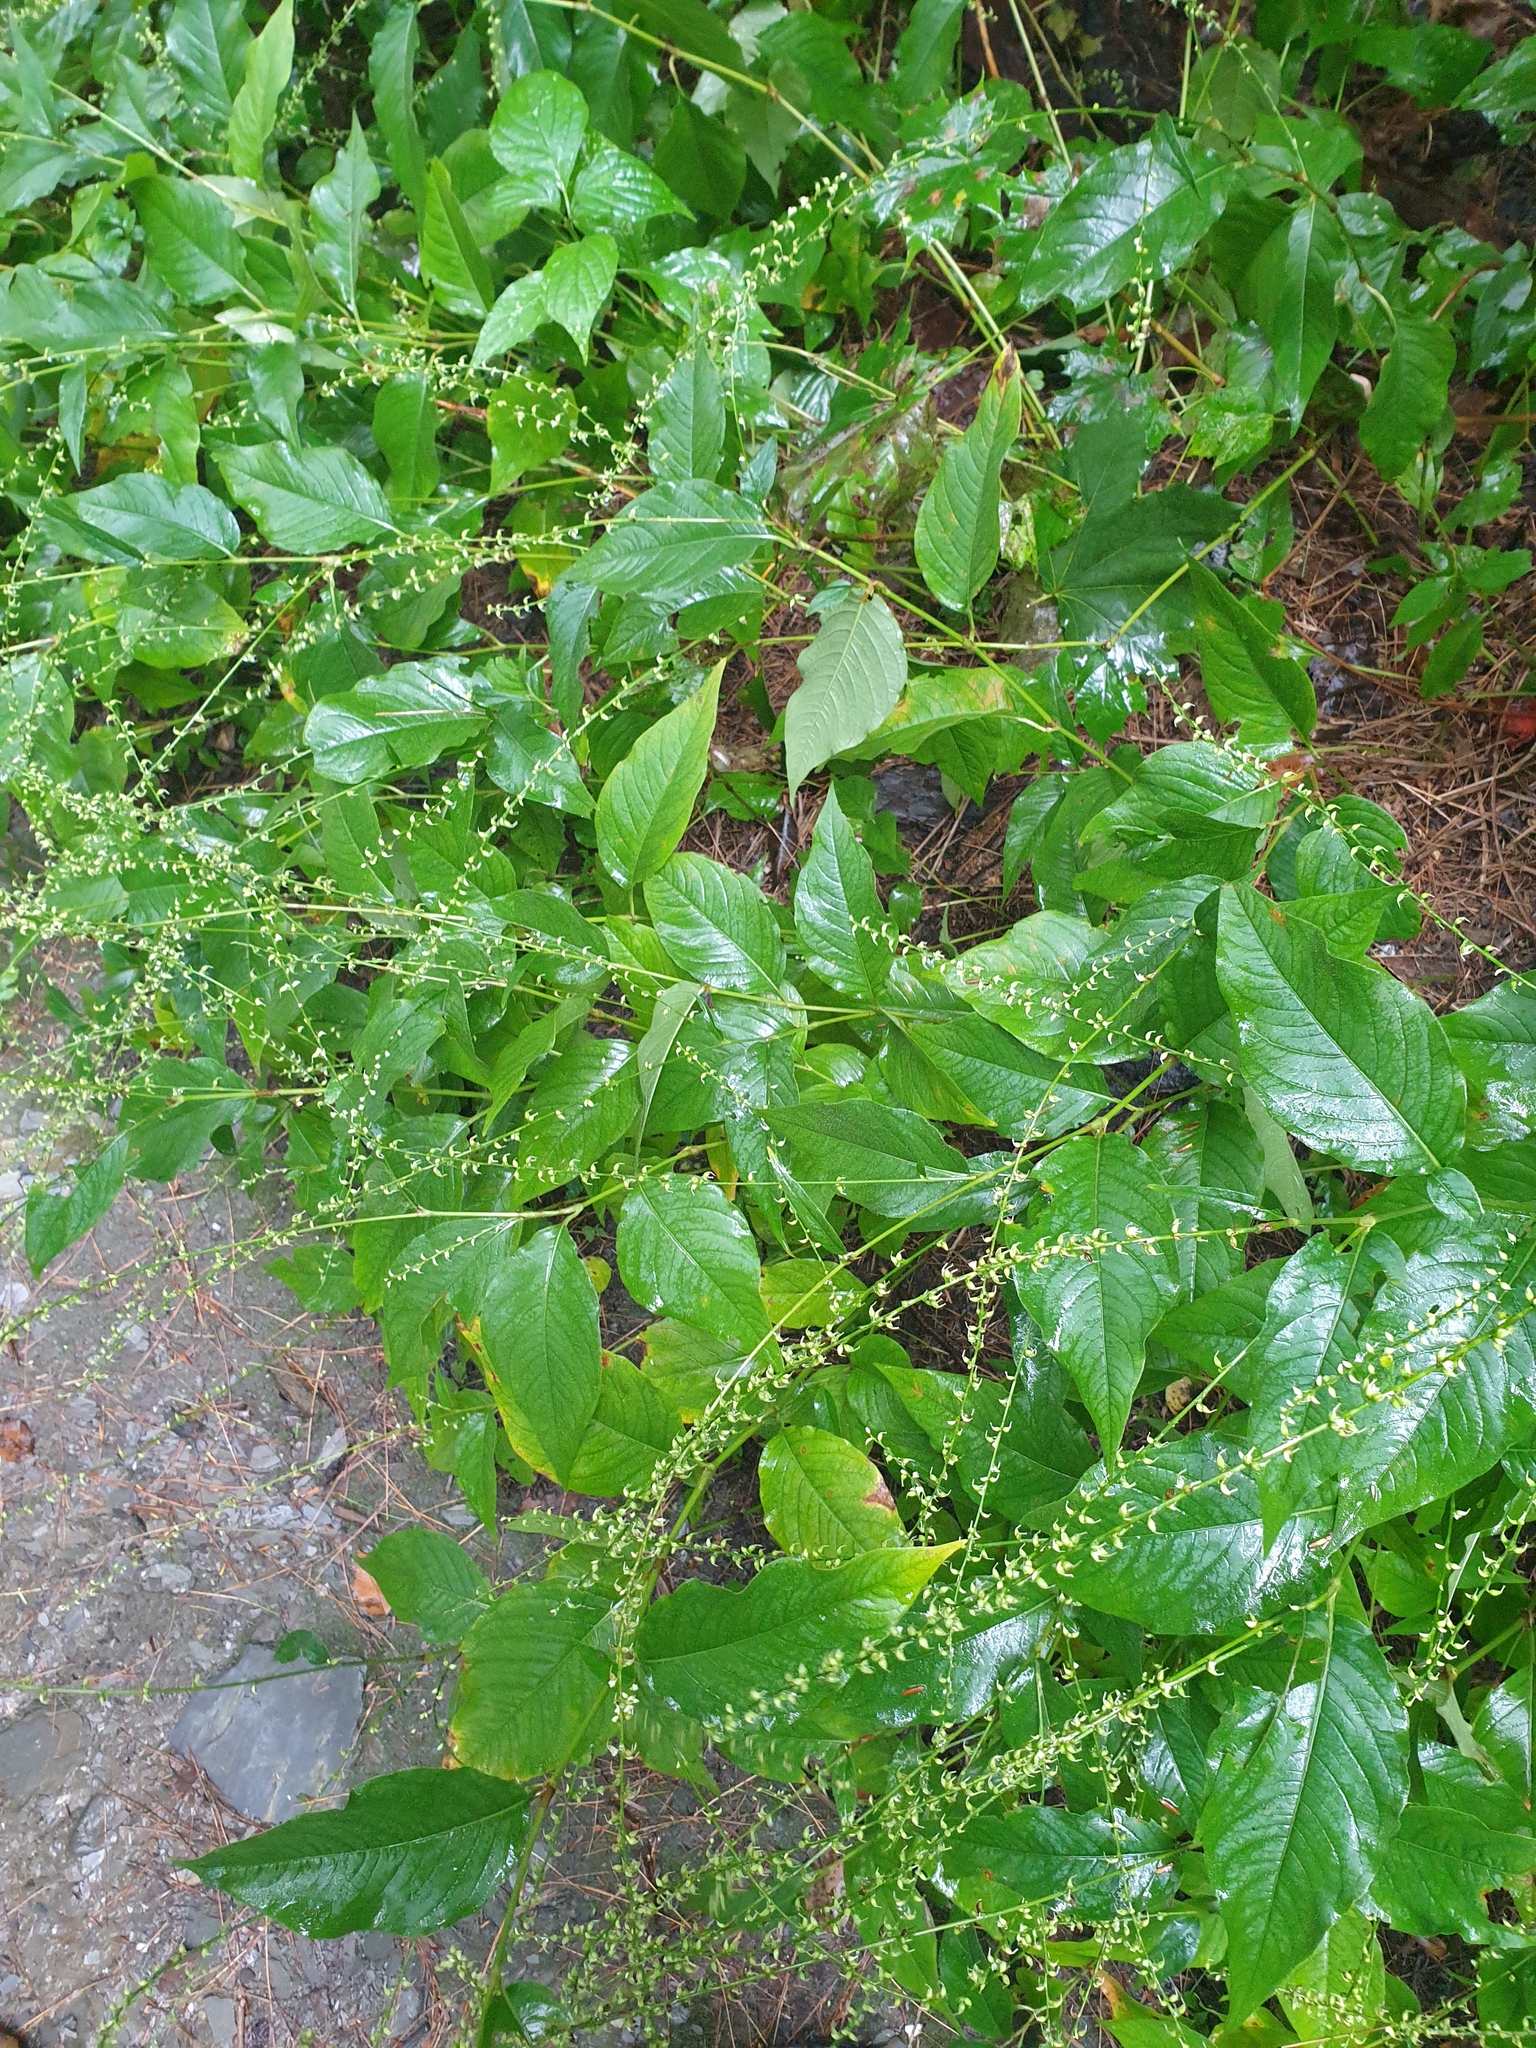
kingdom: Plantae
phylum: Tracheophyta
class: Magnoliopsida
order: Caryophyllales
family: Polygonaceae
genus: Persicaria
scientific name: Persicaria virginiana
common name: Jumpseed
